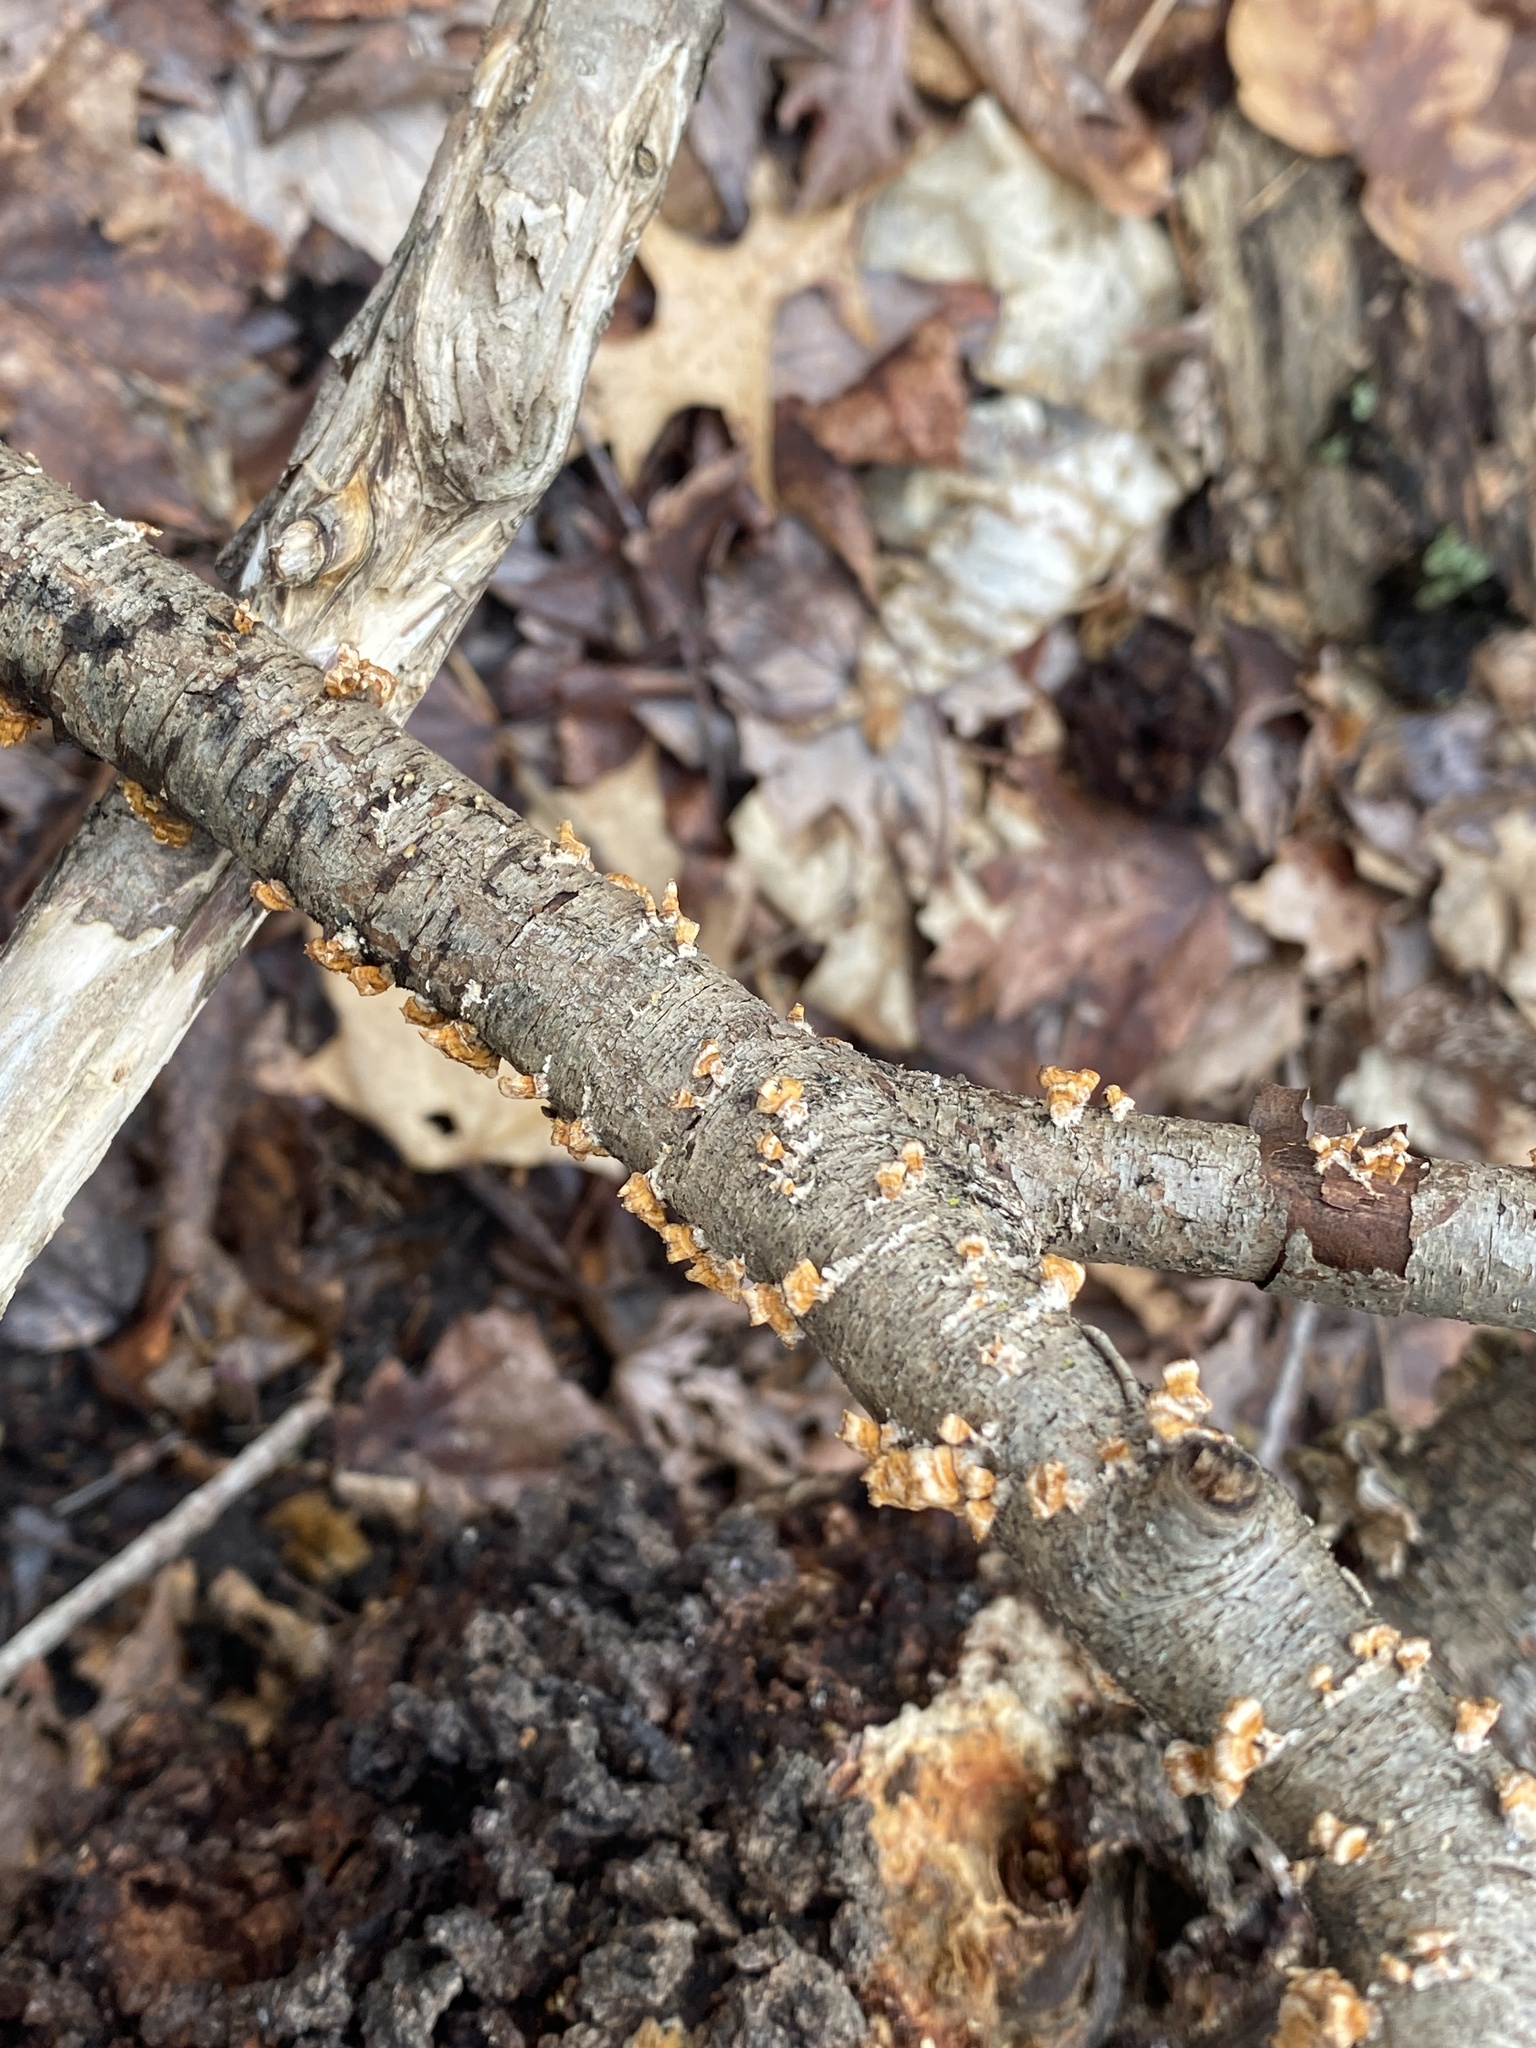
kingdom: Fungi
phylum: Basidiomycota
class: Agaricomycetes
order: Russulales
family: Stereaceae
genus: Stereum
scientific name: Stereum complicatum
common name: Crowded parchment
